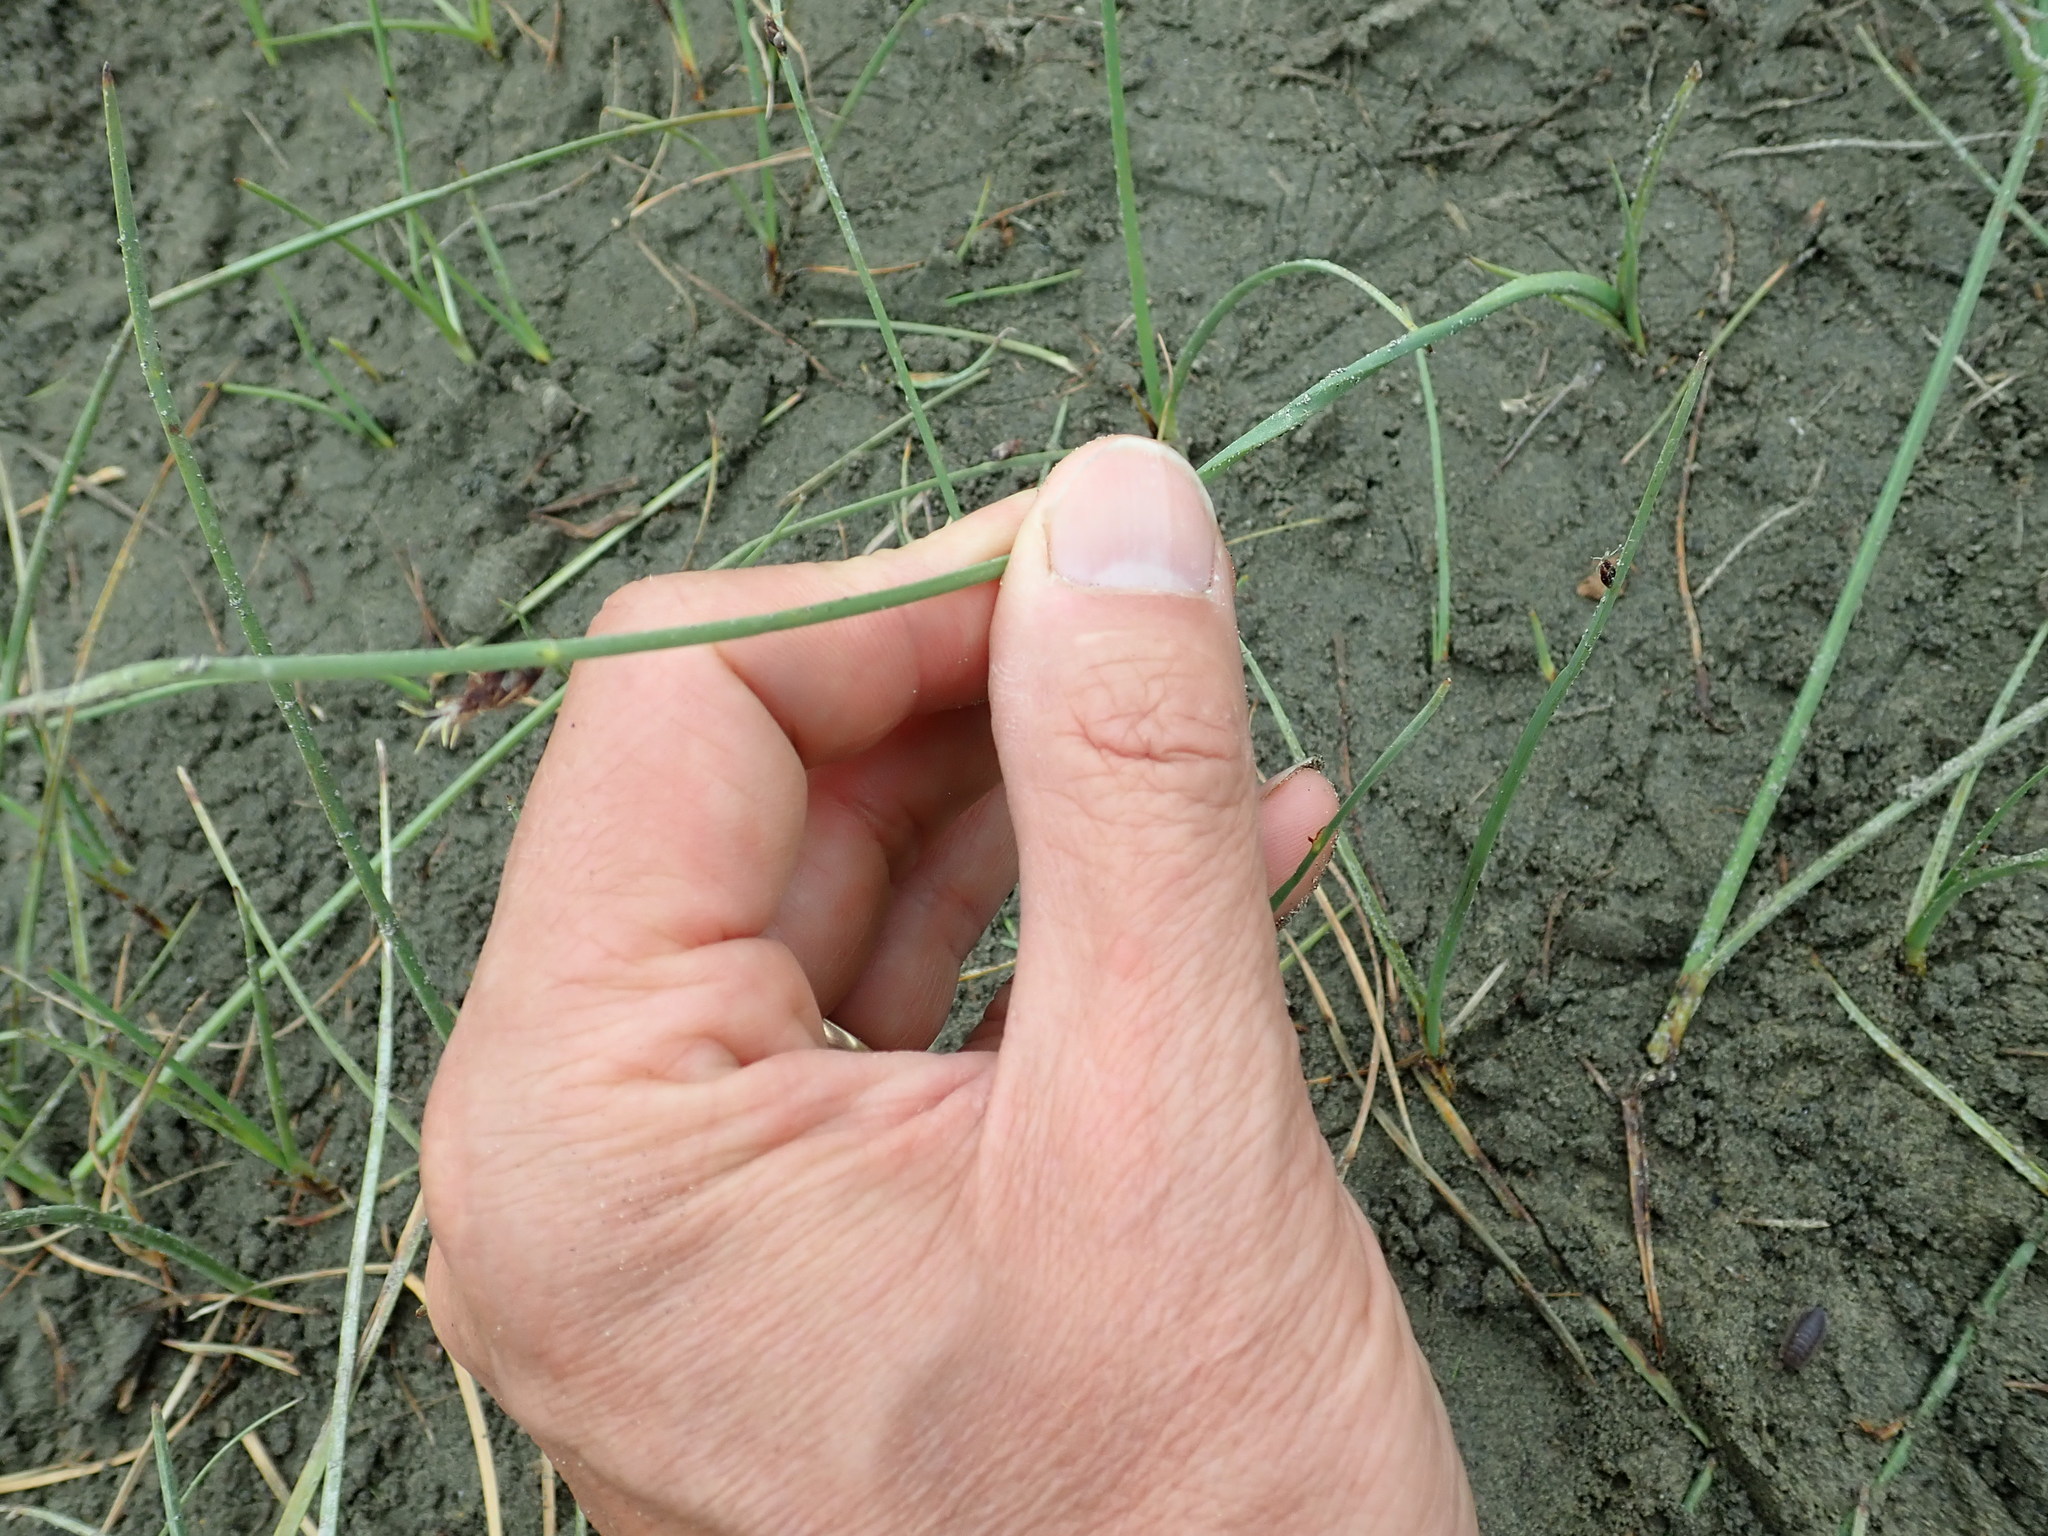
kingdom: Plantae
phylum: Tracheophyta
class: Liliopsida
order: Poales
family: Cyperaceae
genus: Schoenoplectus
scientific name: Schoenoplectus pungens
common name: Sharp club-rush
